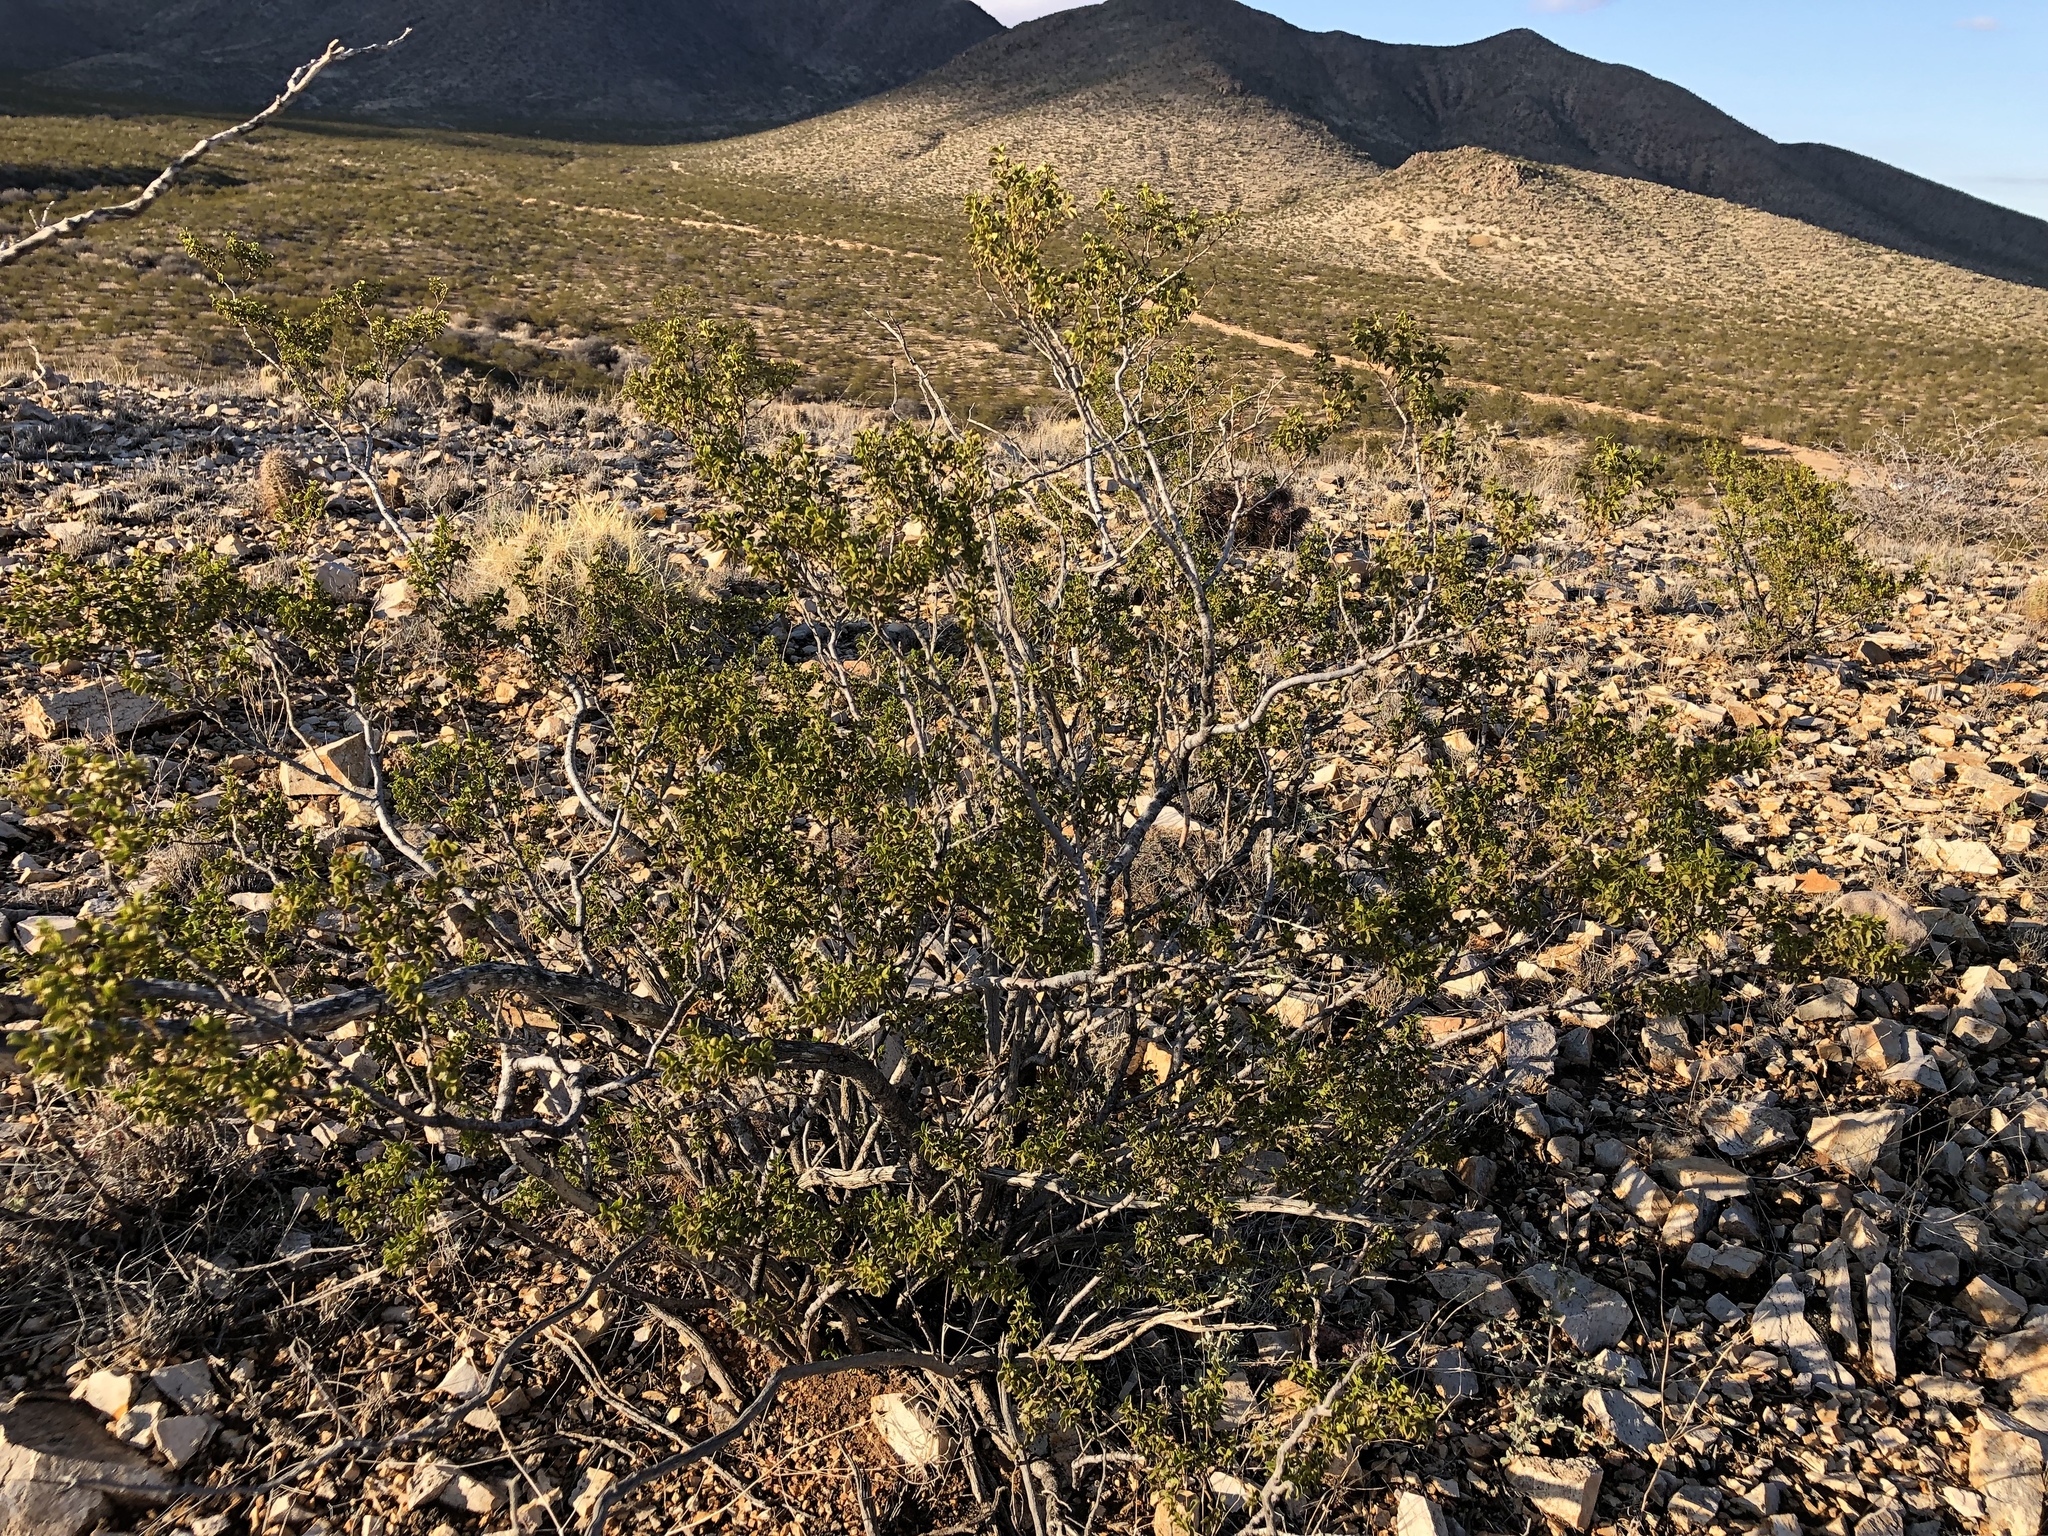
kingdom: Plantae
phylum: Tracheophyta
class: Magnoliopsida
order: Zygophyllales
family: Zygophyllaceae
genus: Larrea
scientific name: Larrea tridentata
